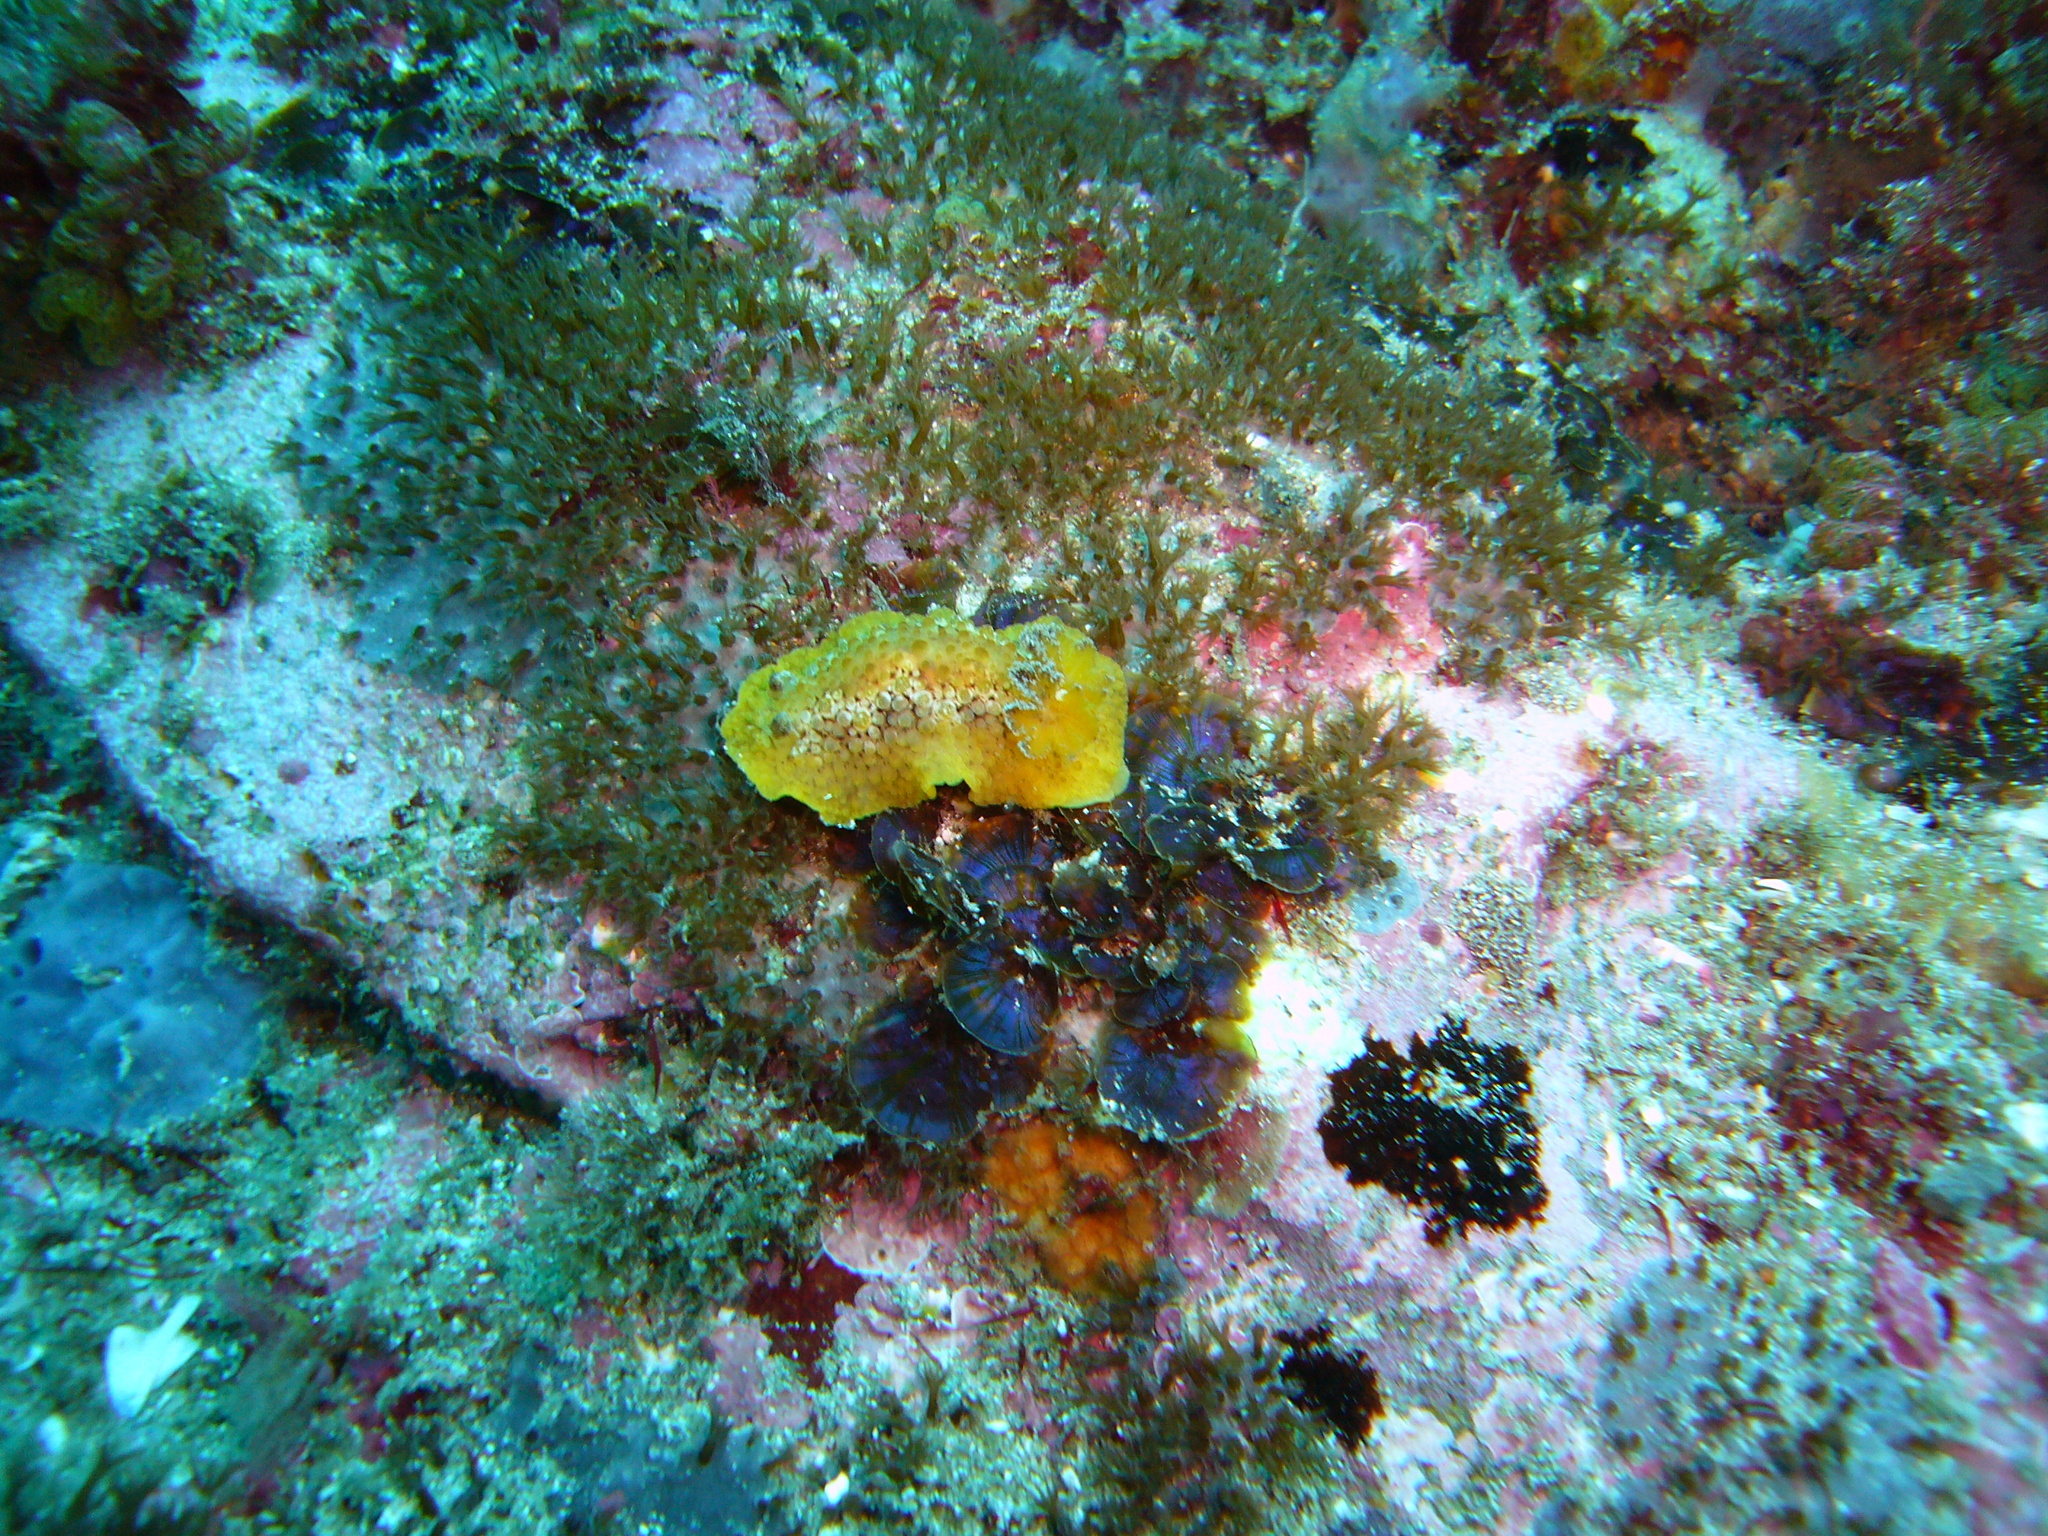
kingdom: Animalia
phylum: Mollusca
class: Gastropoda
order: Nudibranchia
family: Discodorididae
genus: Carminodoris
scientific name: Carminodoris nodulosa
